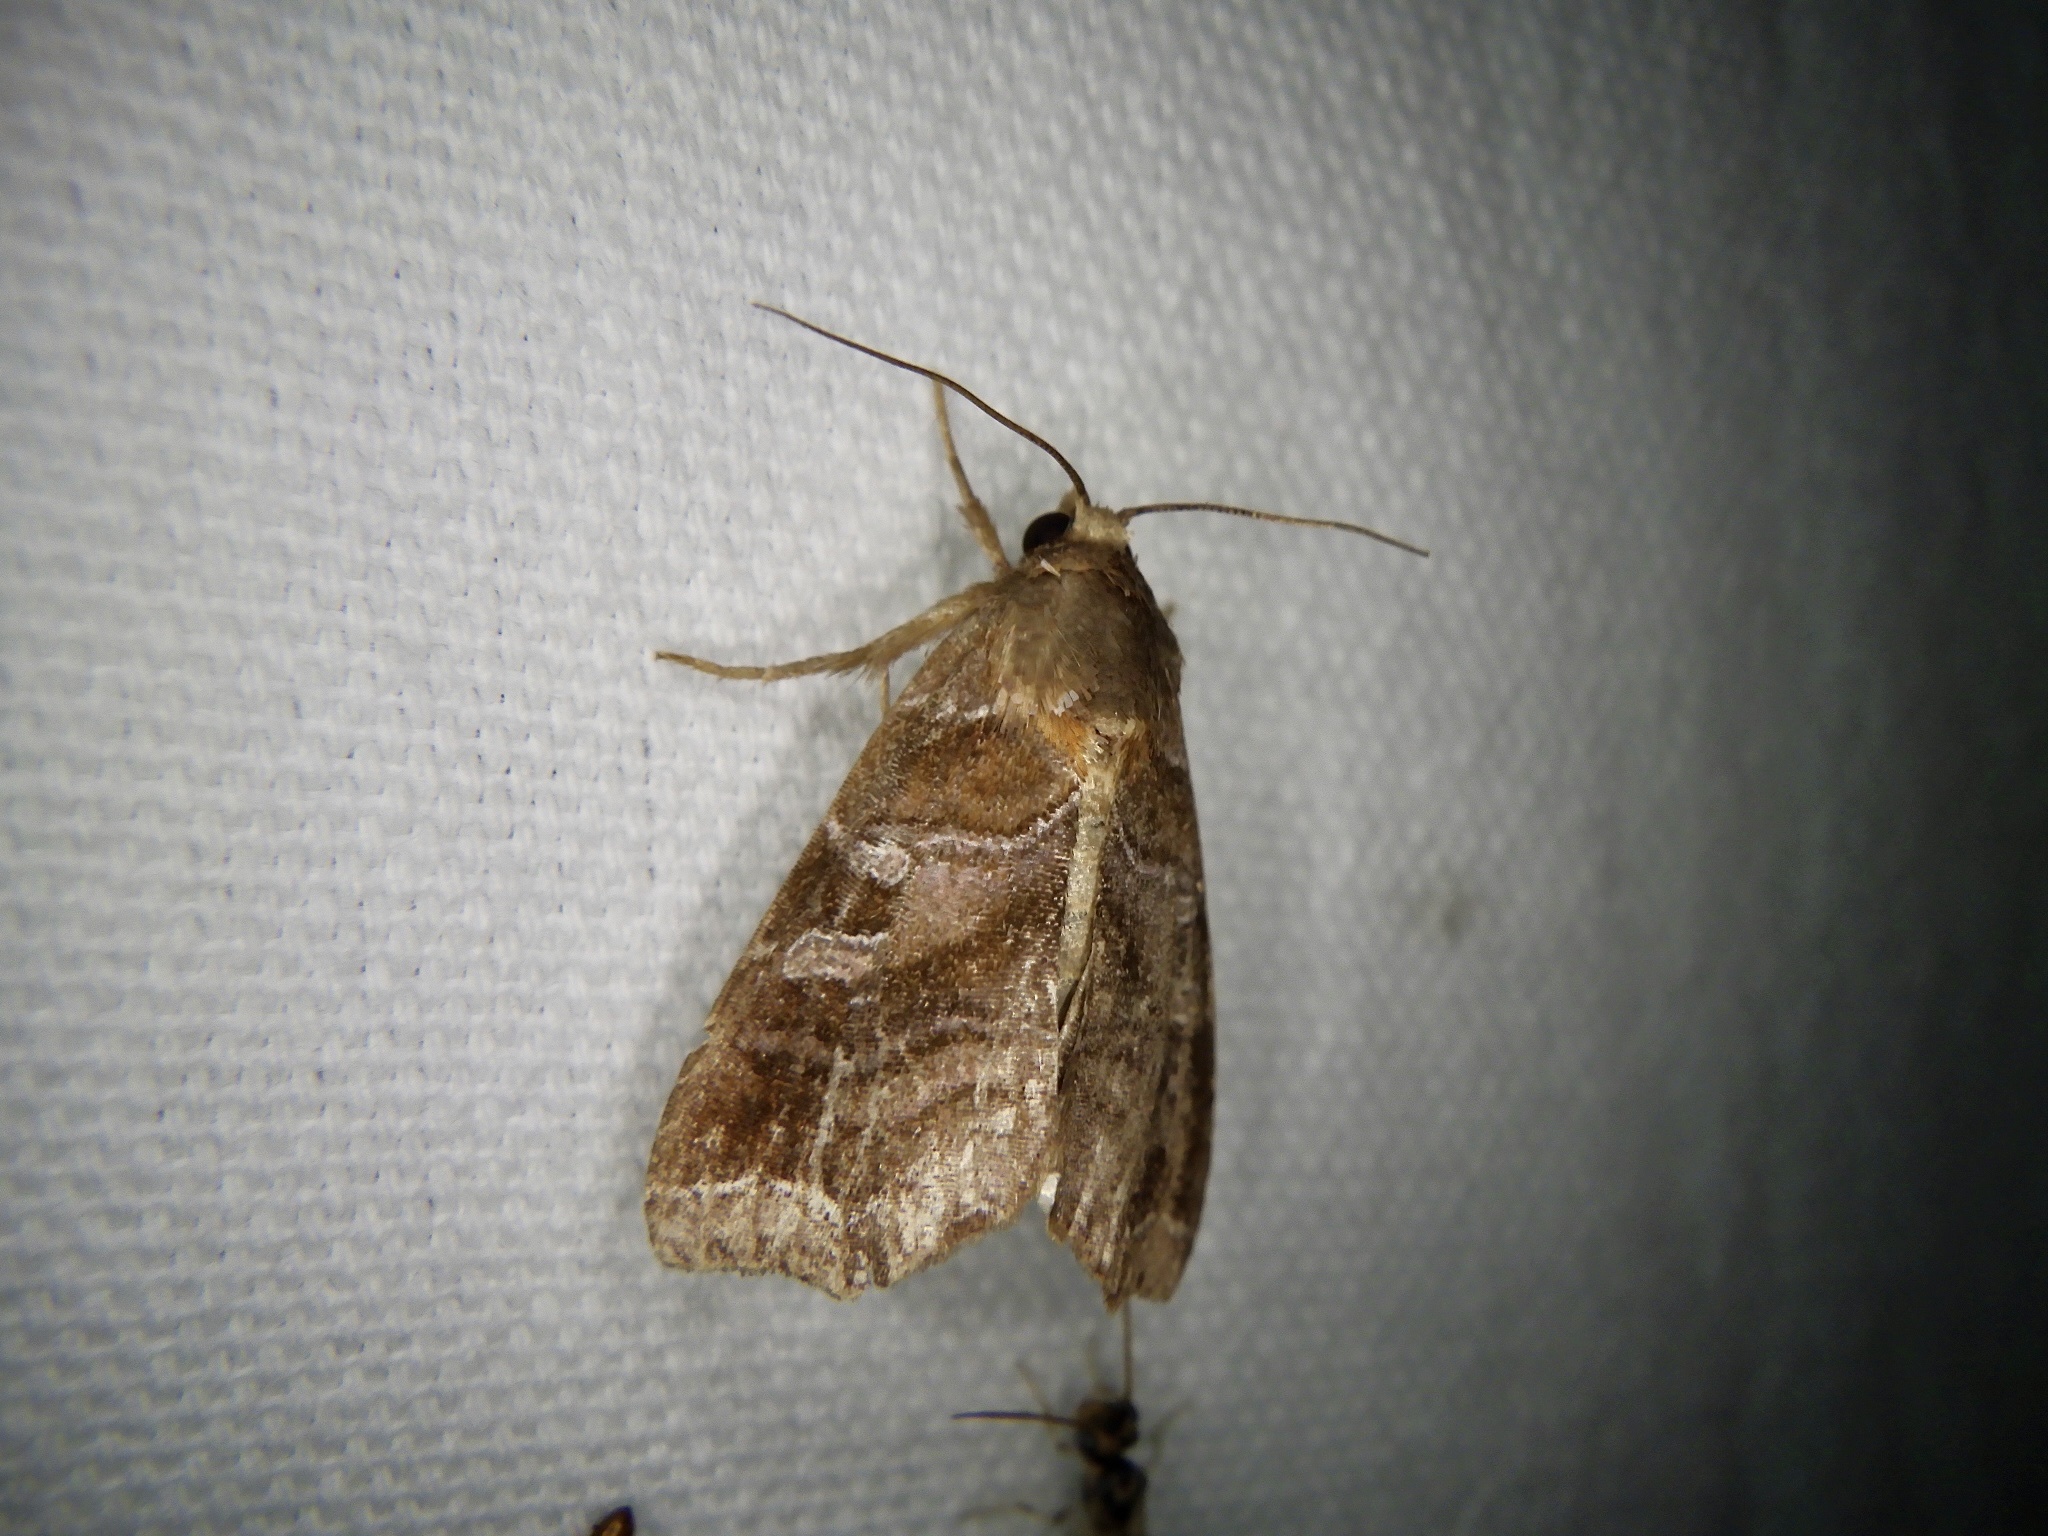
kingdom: Animalia
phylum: Arthropoda
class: Insecta
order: Lepidoptera
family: Noctuidae
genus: Callopistria
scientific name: Callopistria placodoides
